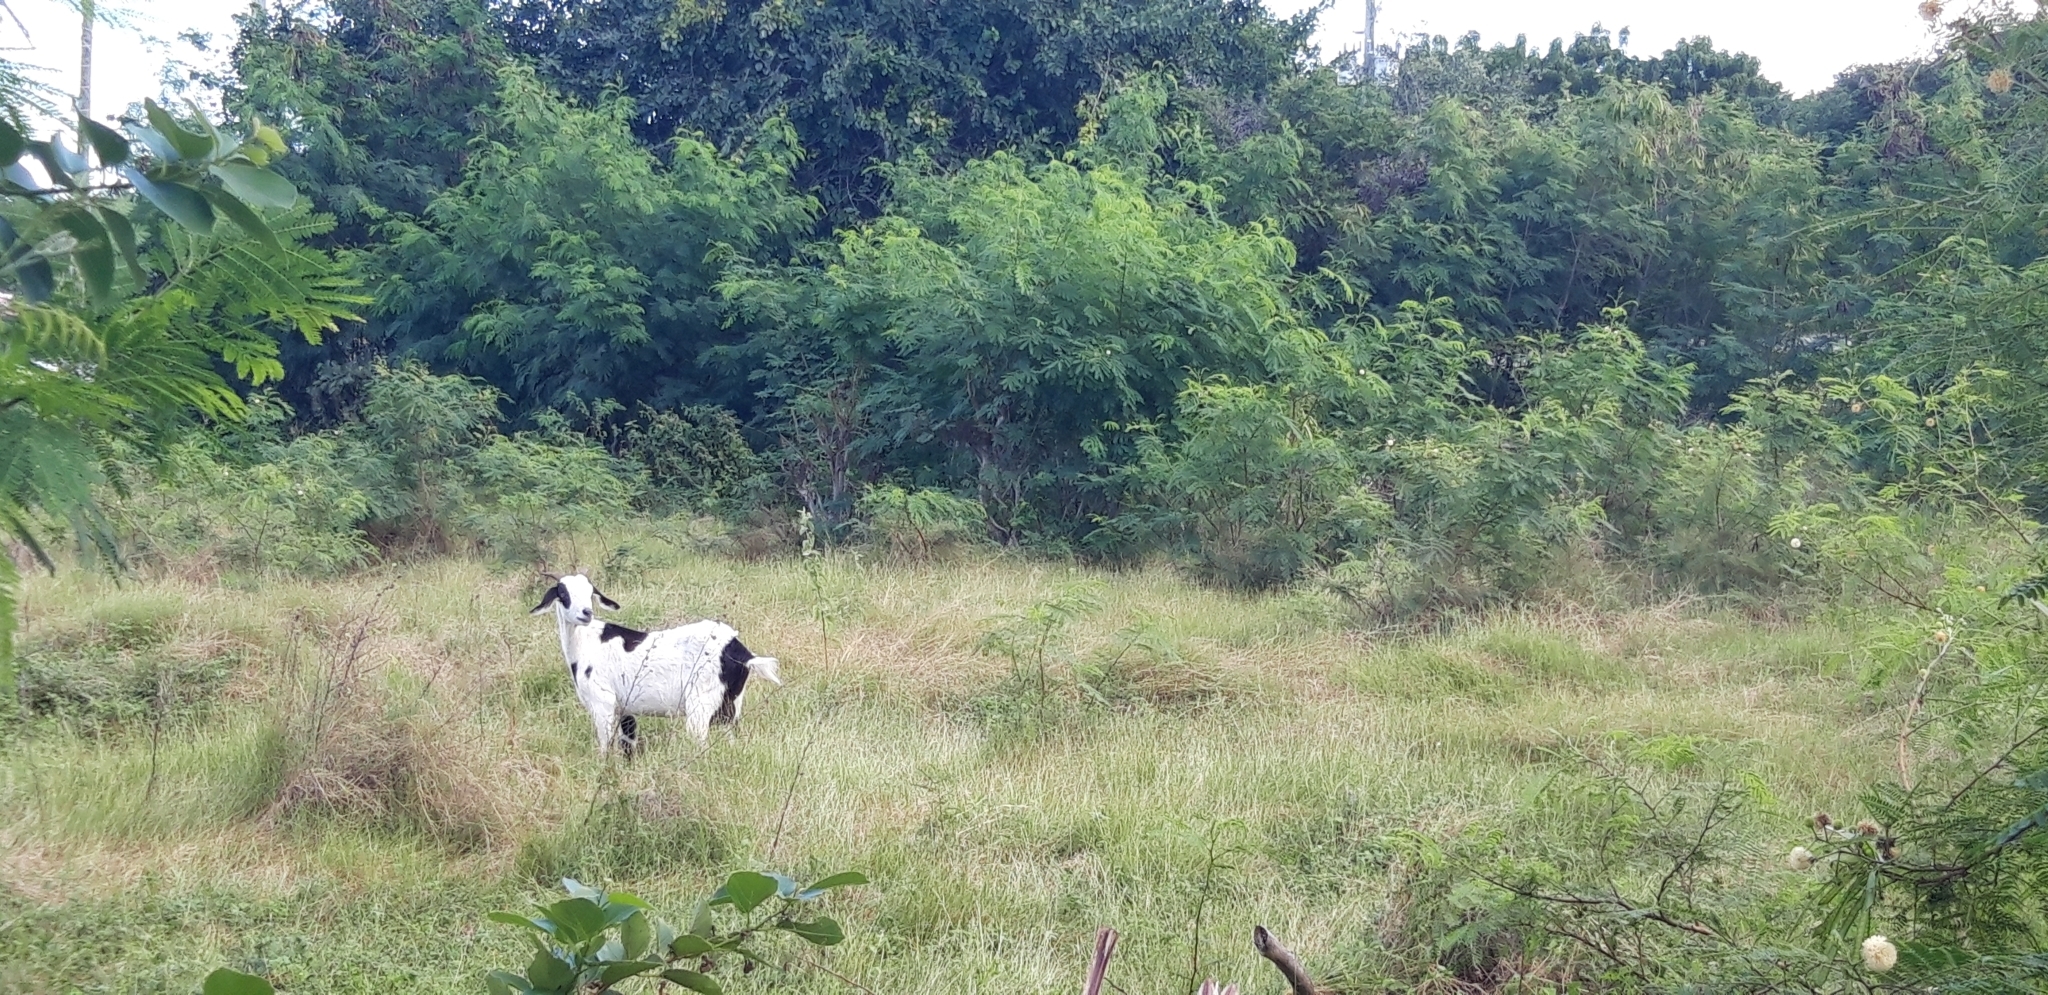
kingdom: Animalia
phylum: Chordata
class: Mammalia
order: Artiodactyla
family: Bovidae
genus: Capra
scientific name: Capra hircus
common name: Domestic goat
